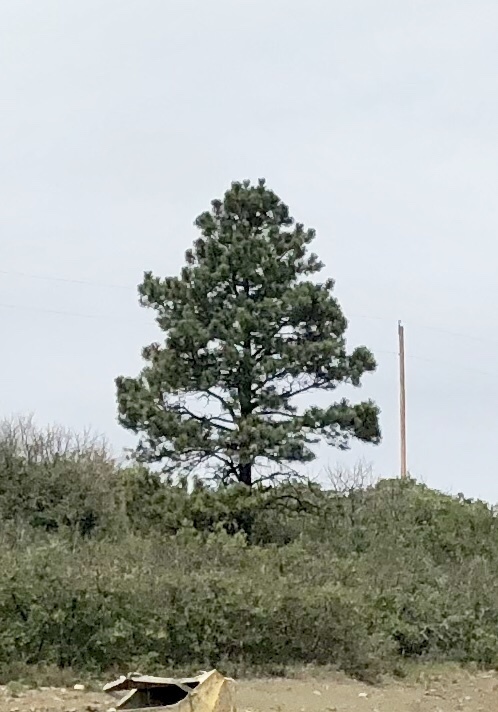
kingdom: Plantae
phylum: Tracheophyta
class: Pinopsida
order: Pinales
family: Pinaceae
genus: Pinus
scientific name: Pinus ponderosa
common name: Western yellow-pine
